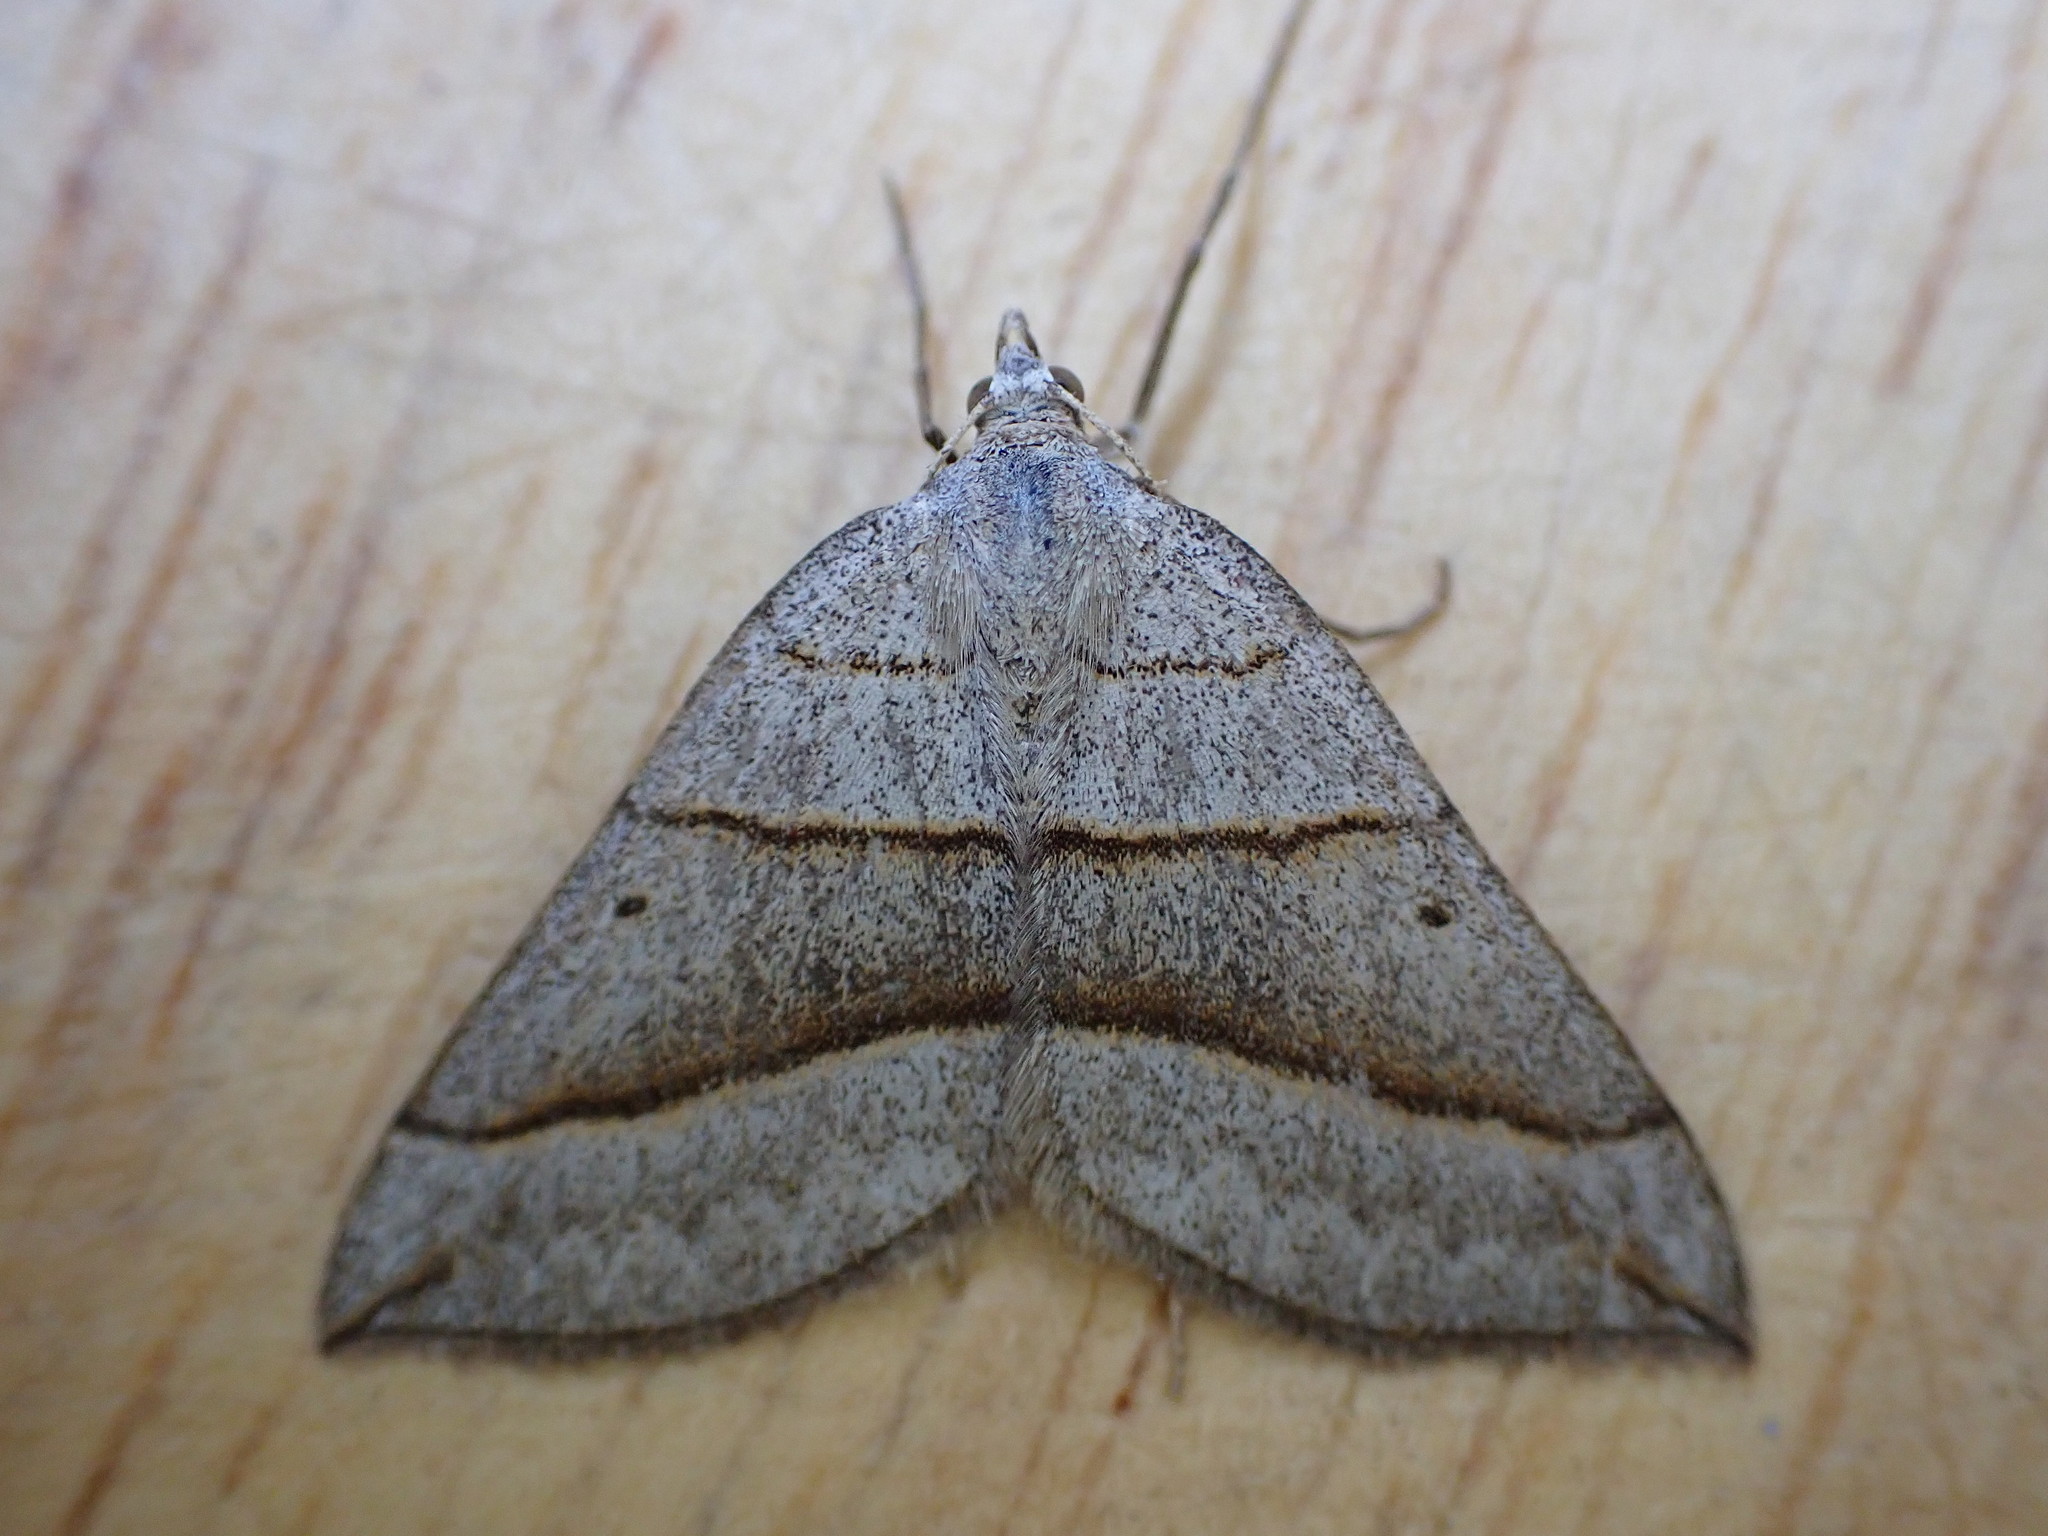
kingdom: Animalia
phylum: Arthropoda
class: Insecta
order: Lepidoptera
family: Geometridae
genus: Scotopteryx
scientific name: Scotopteryx luridata
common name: July belle
